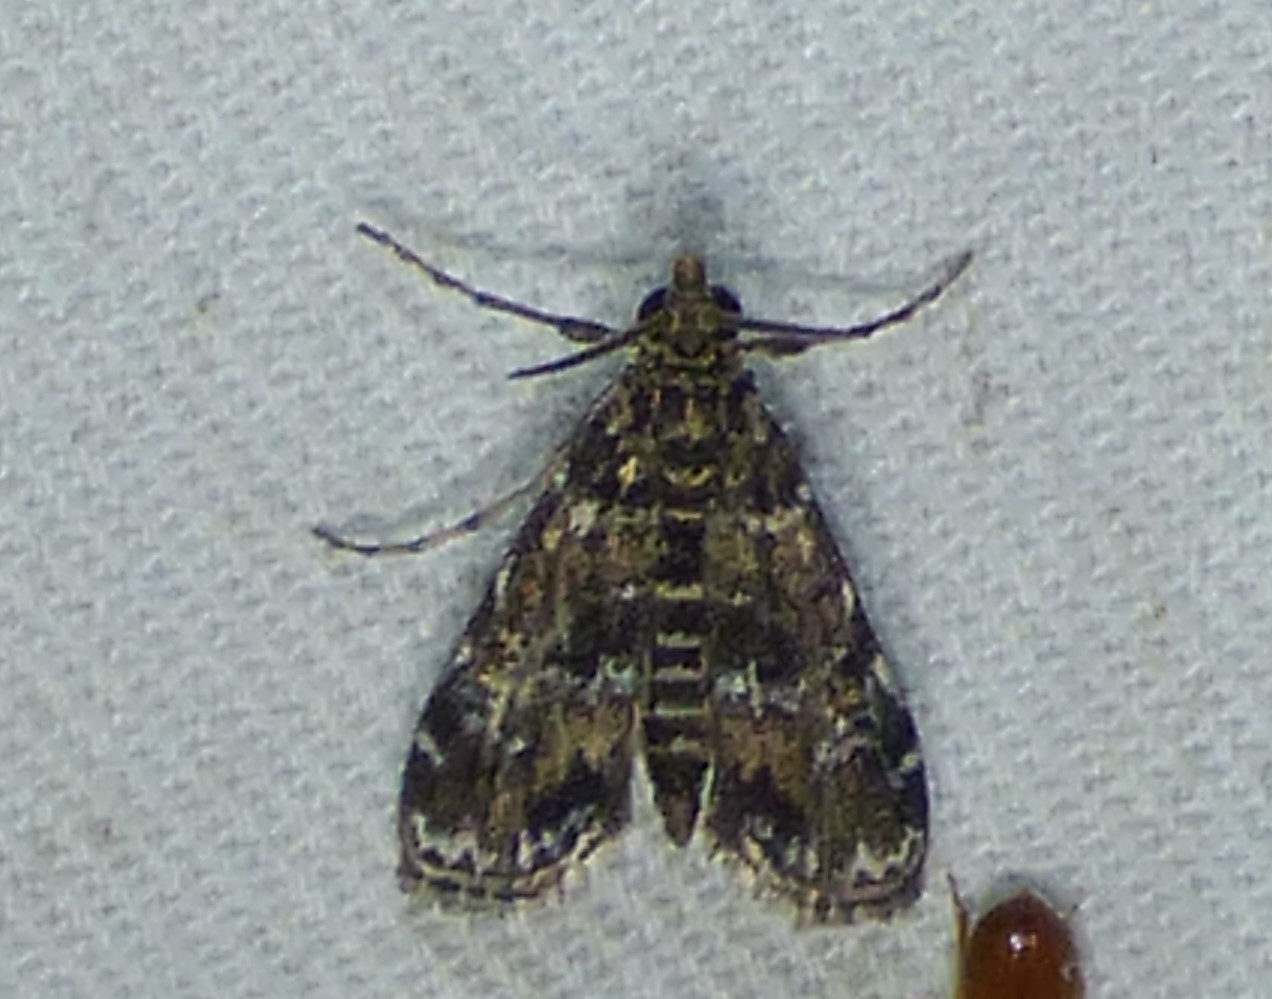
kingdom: Animalia
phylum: Arthropoda
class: Insecta
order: Lepidoptera
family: Crambidae
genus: Elophila
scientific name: Elophila obliteralis
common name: Waterlily leafcutter moth
